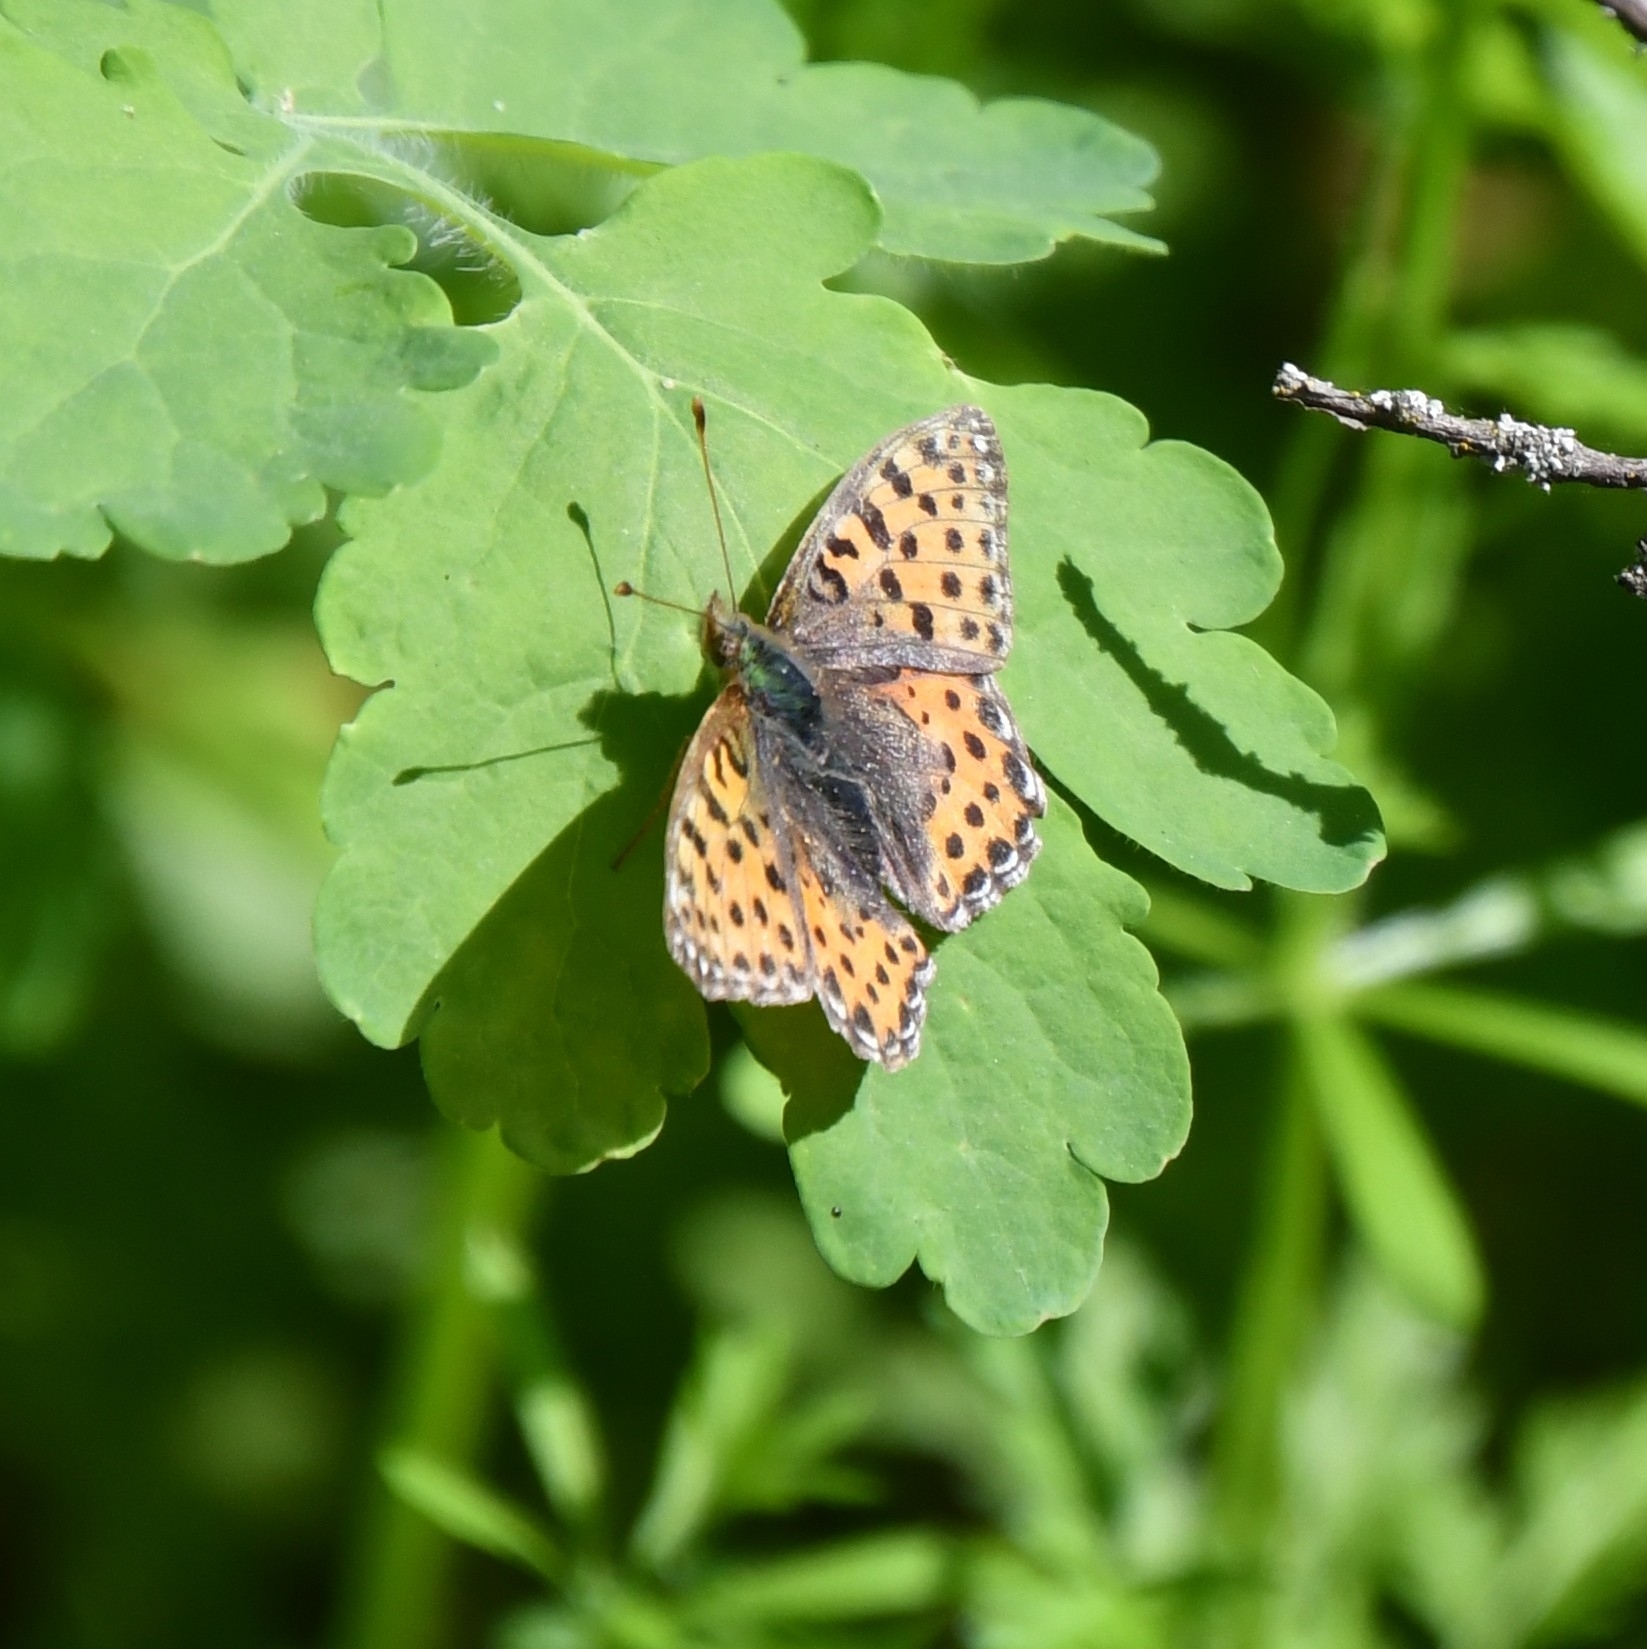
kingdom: Animalia
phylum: Arthropoda
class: Insecta
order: Lepidoptera
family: Nymphalidae
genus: Issoria
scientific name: Issoria lathonia
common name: Queen of spain fritillary
